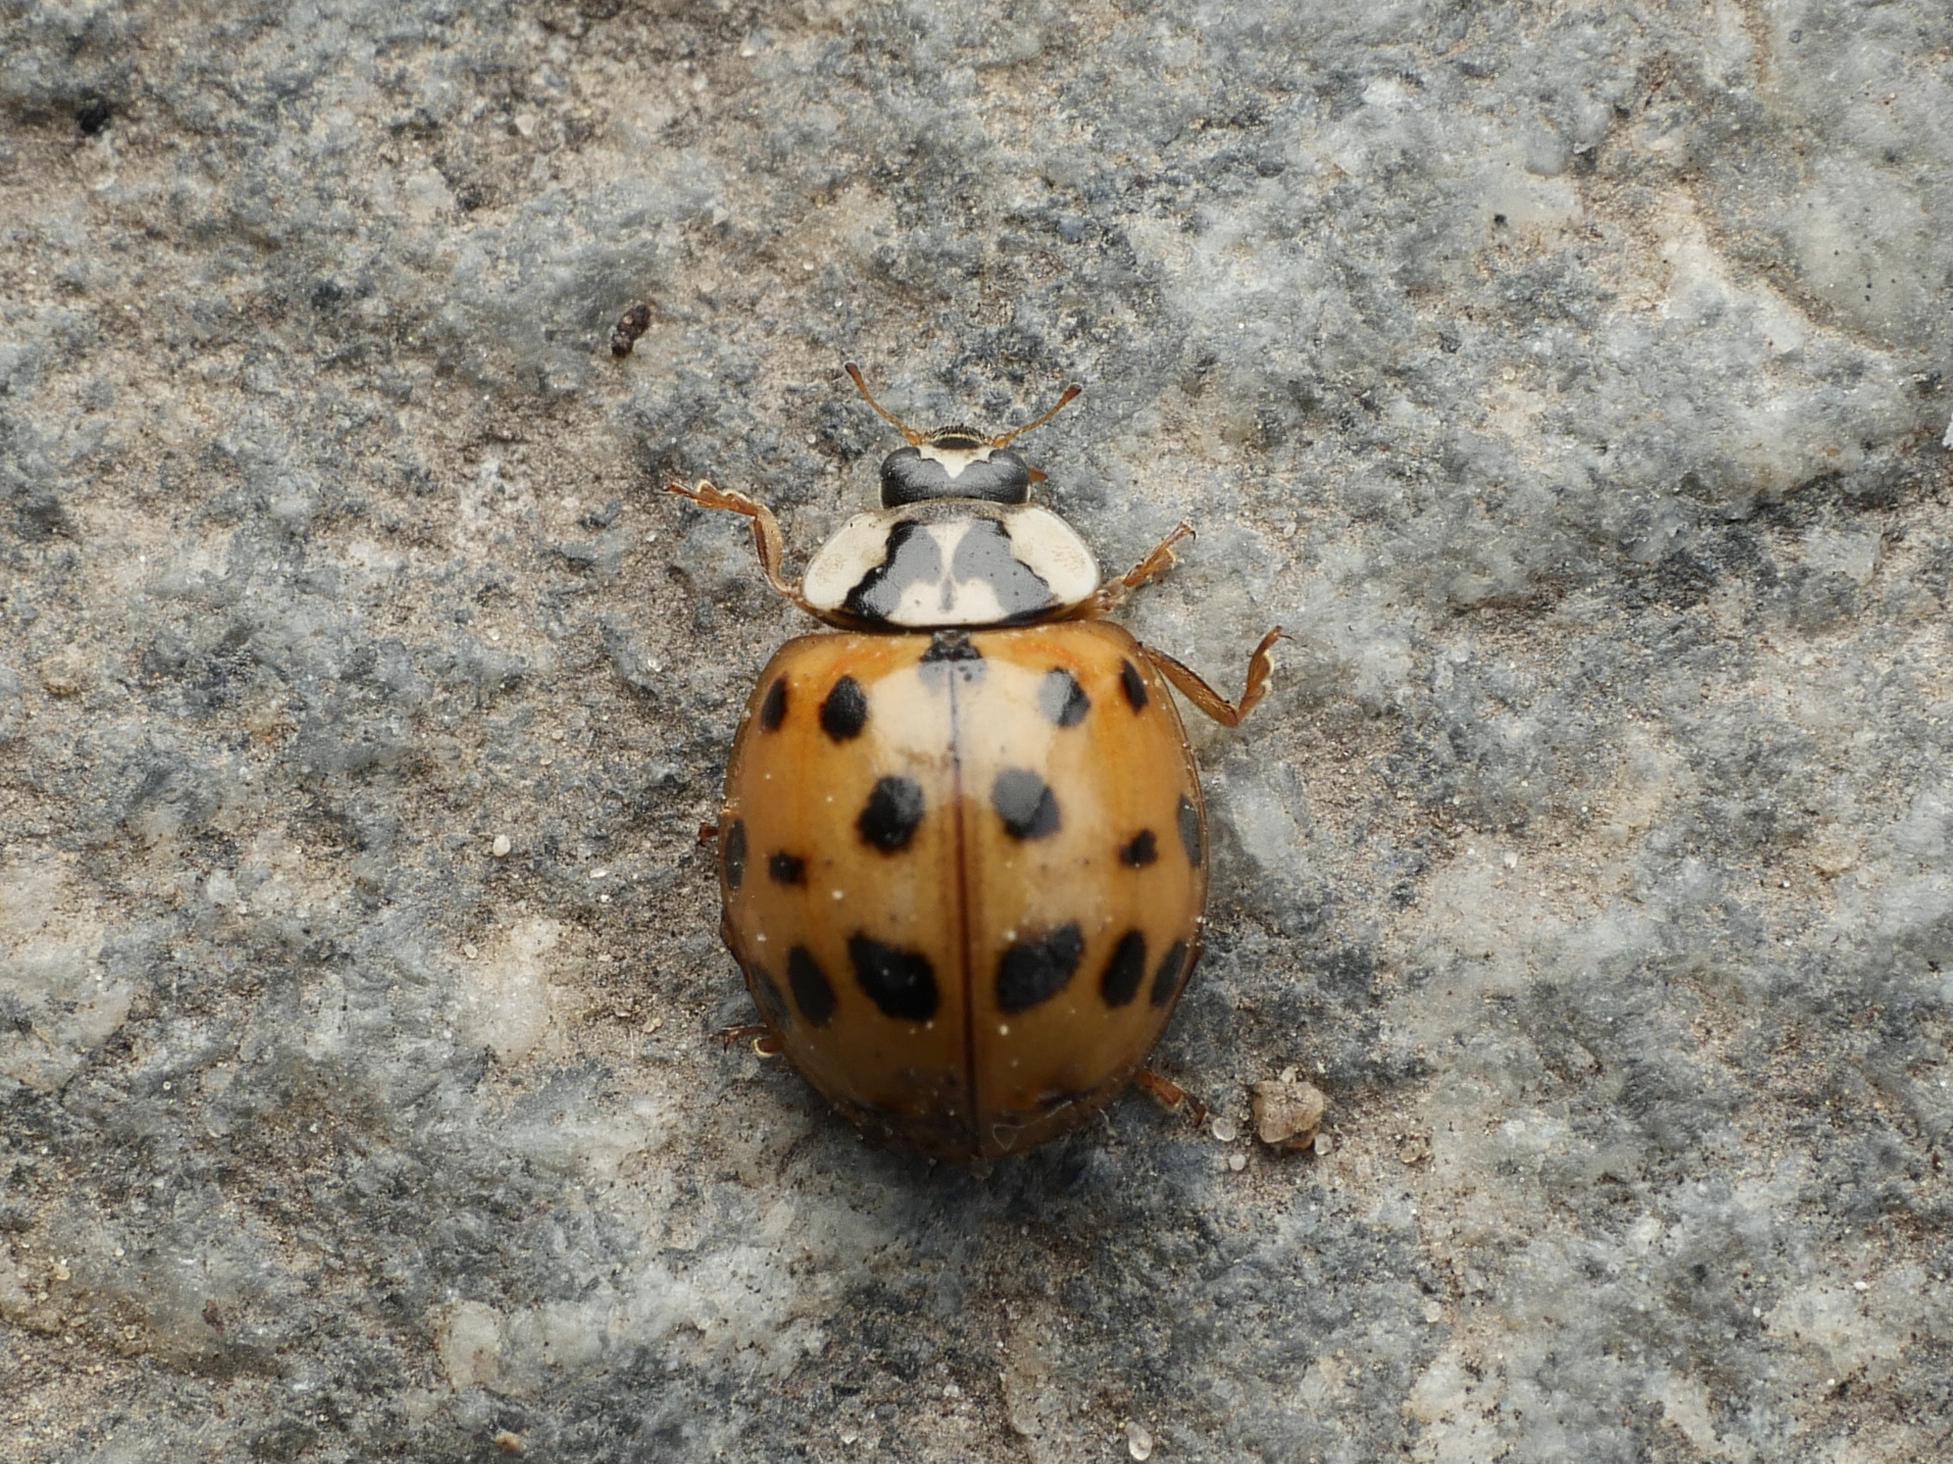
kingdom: Animalia
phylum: Arthropoda
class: Insecta
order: Coleoptera
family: Coccinellidae
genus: Harmonia
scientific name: Harmonia axyridis
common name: Harlequin ladybird
